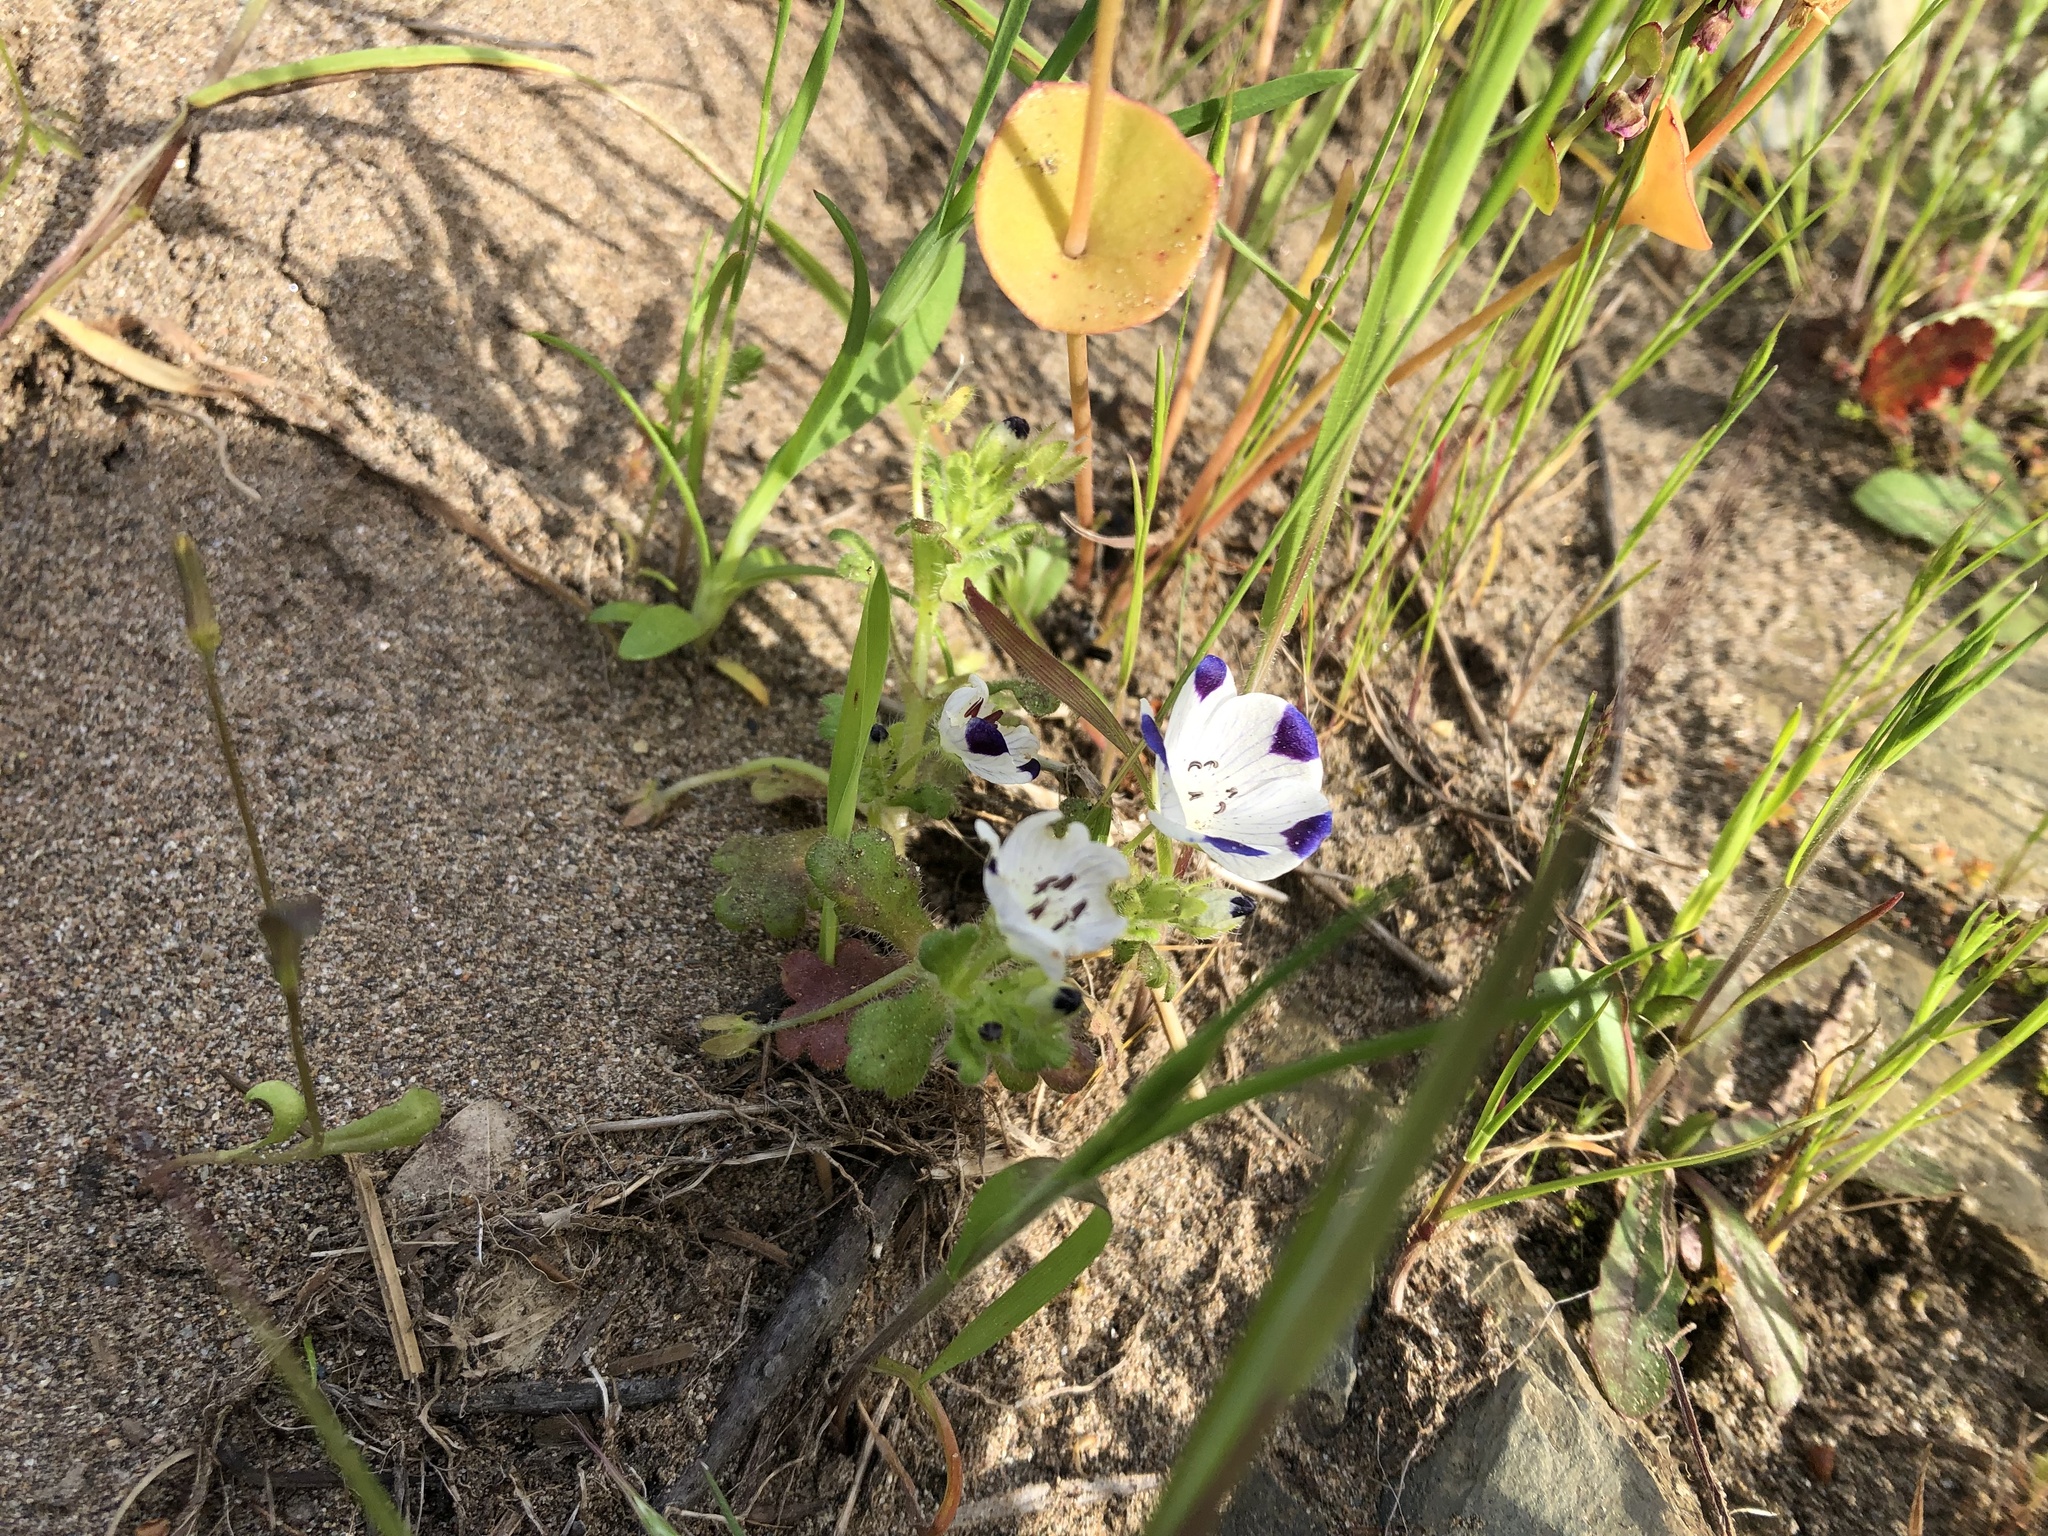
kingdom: Plantae
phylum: Tracheophyta
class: Magnoliopsida
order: Boraginales
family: Hydrophyllaceae
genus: Nemophila
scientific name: Nemophila maculata
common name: Fivespot
